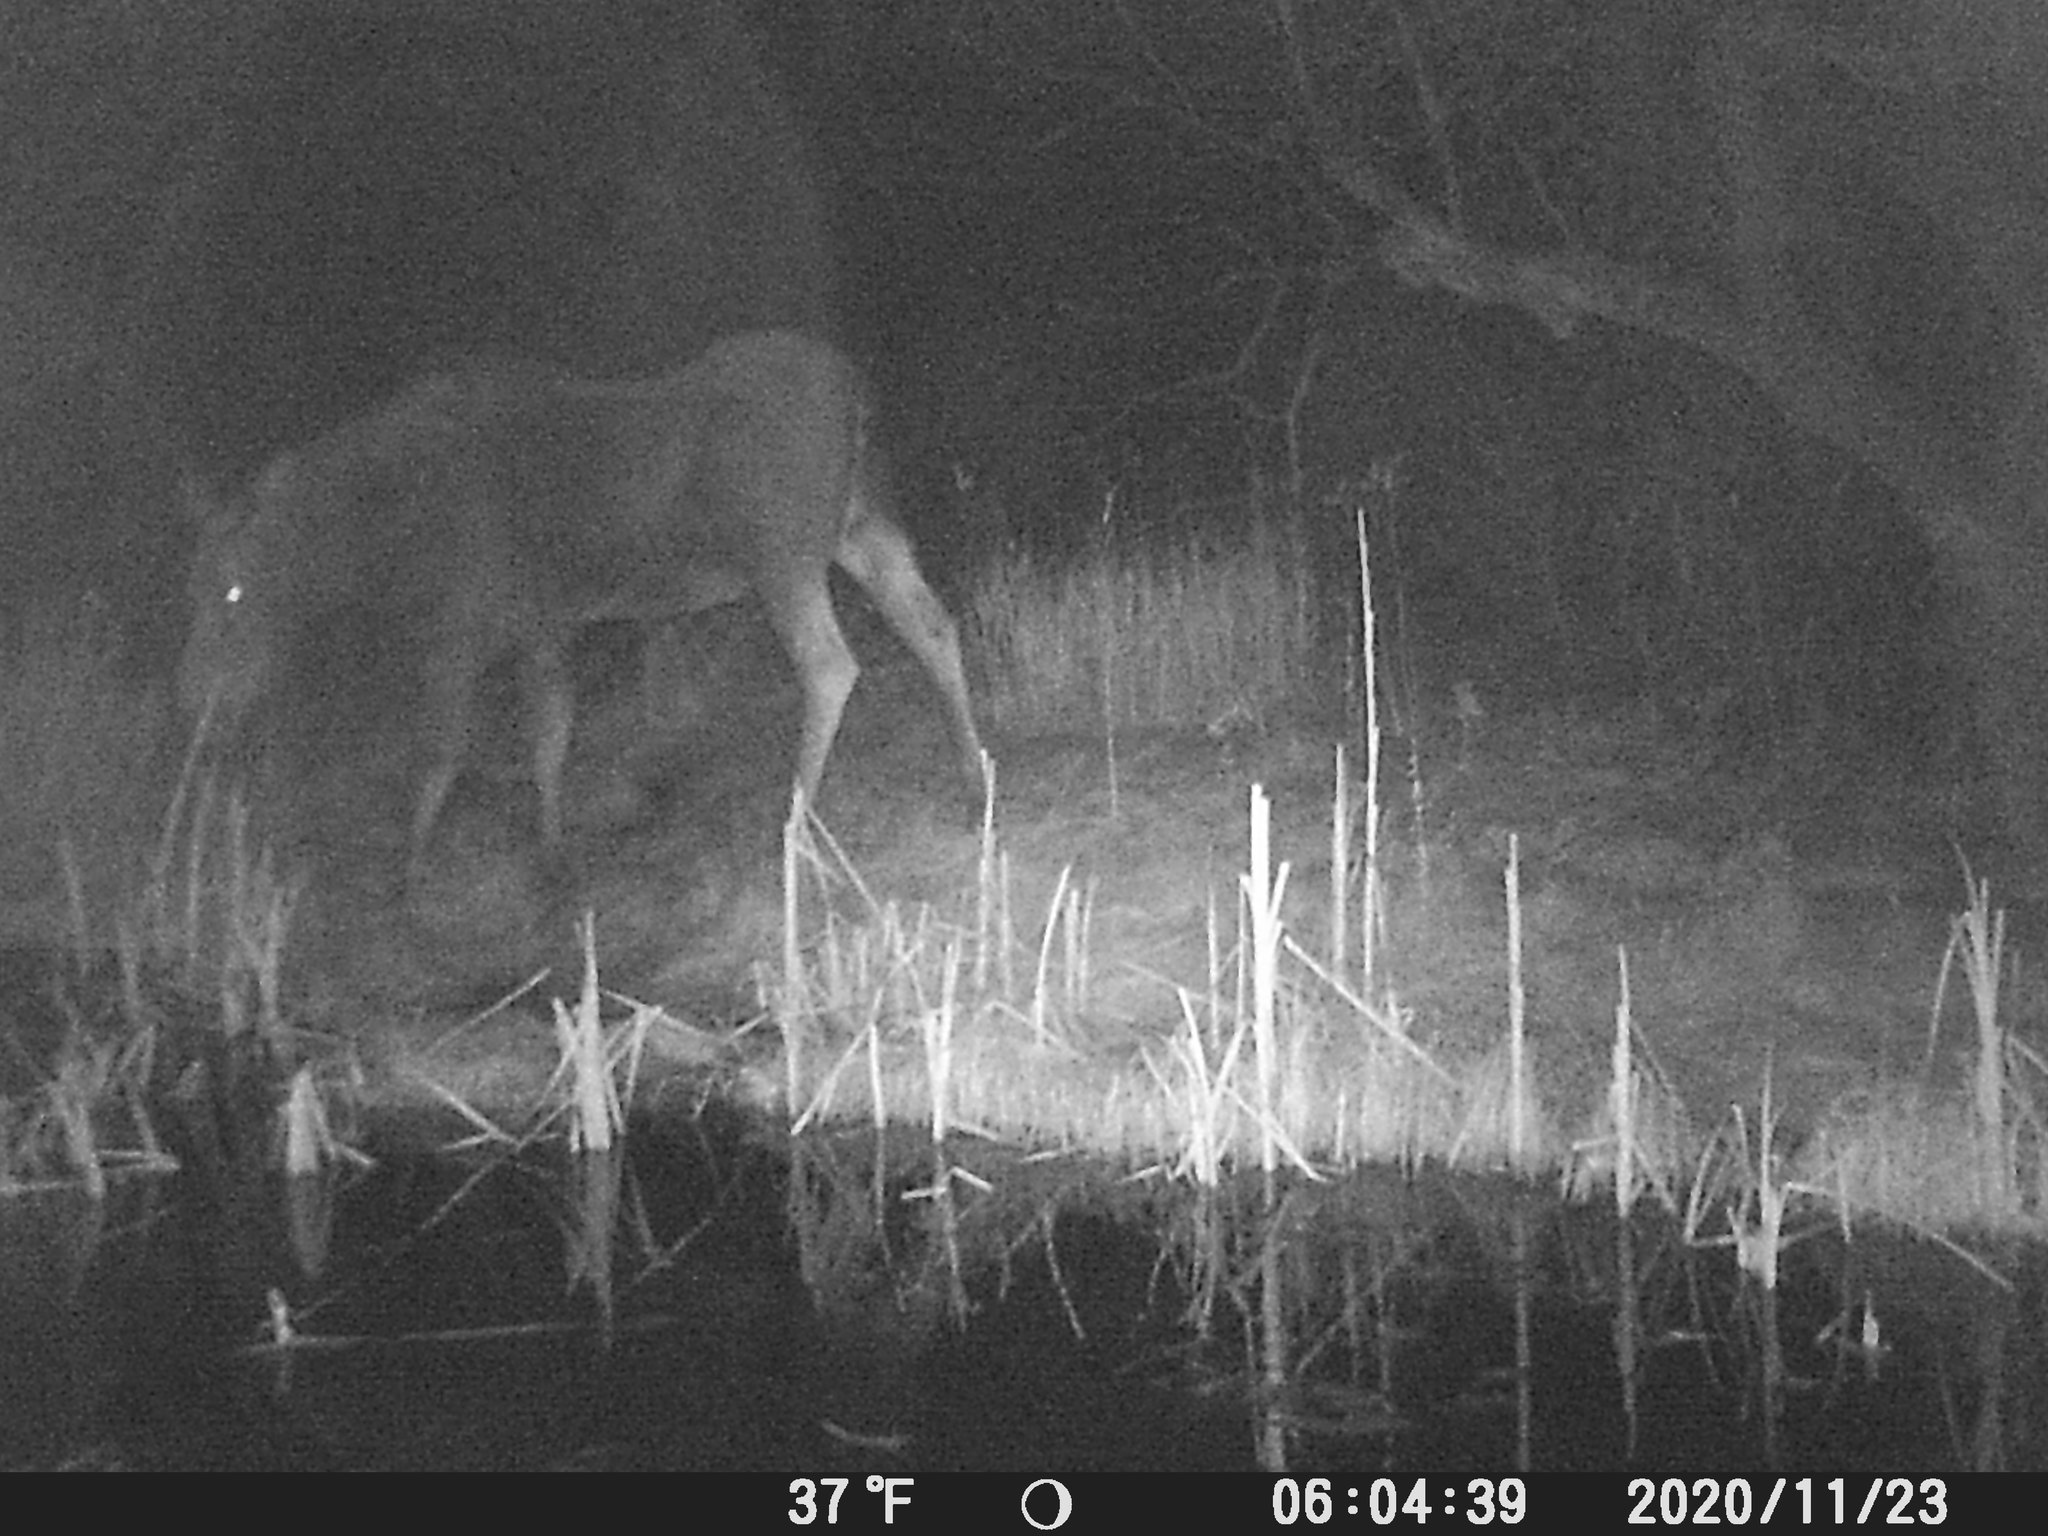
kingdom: Animalia
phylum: Chordata
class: Mammalia
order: Artiodactyla
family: Cervidae
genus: Alces
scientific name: Alces alces
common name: Moose
